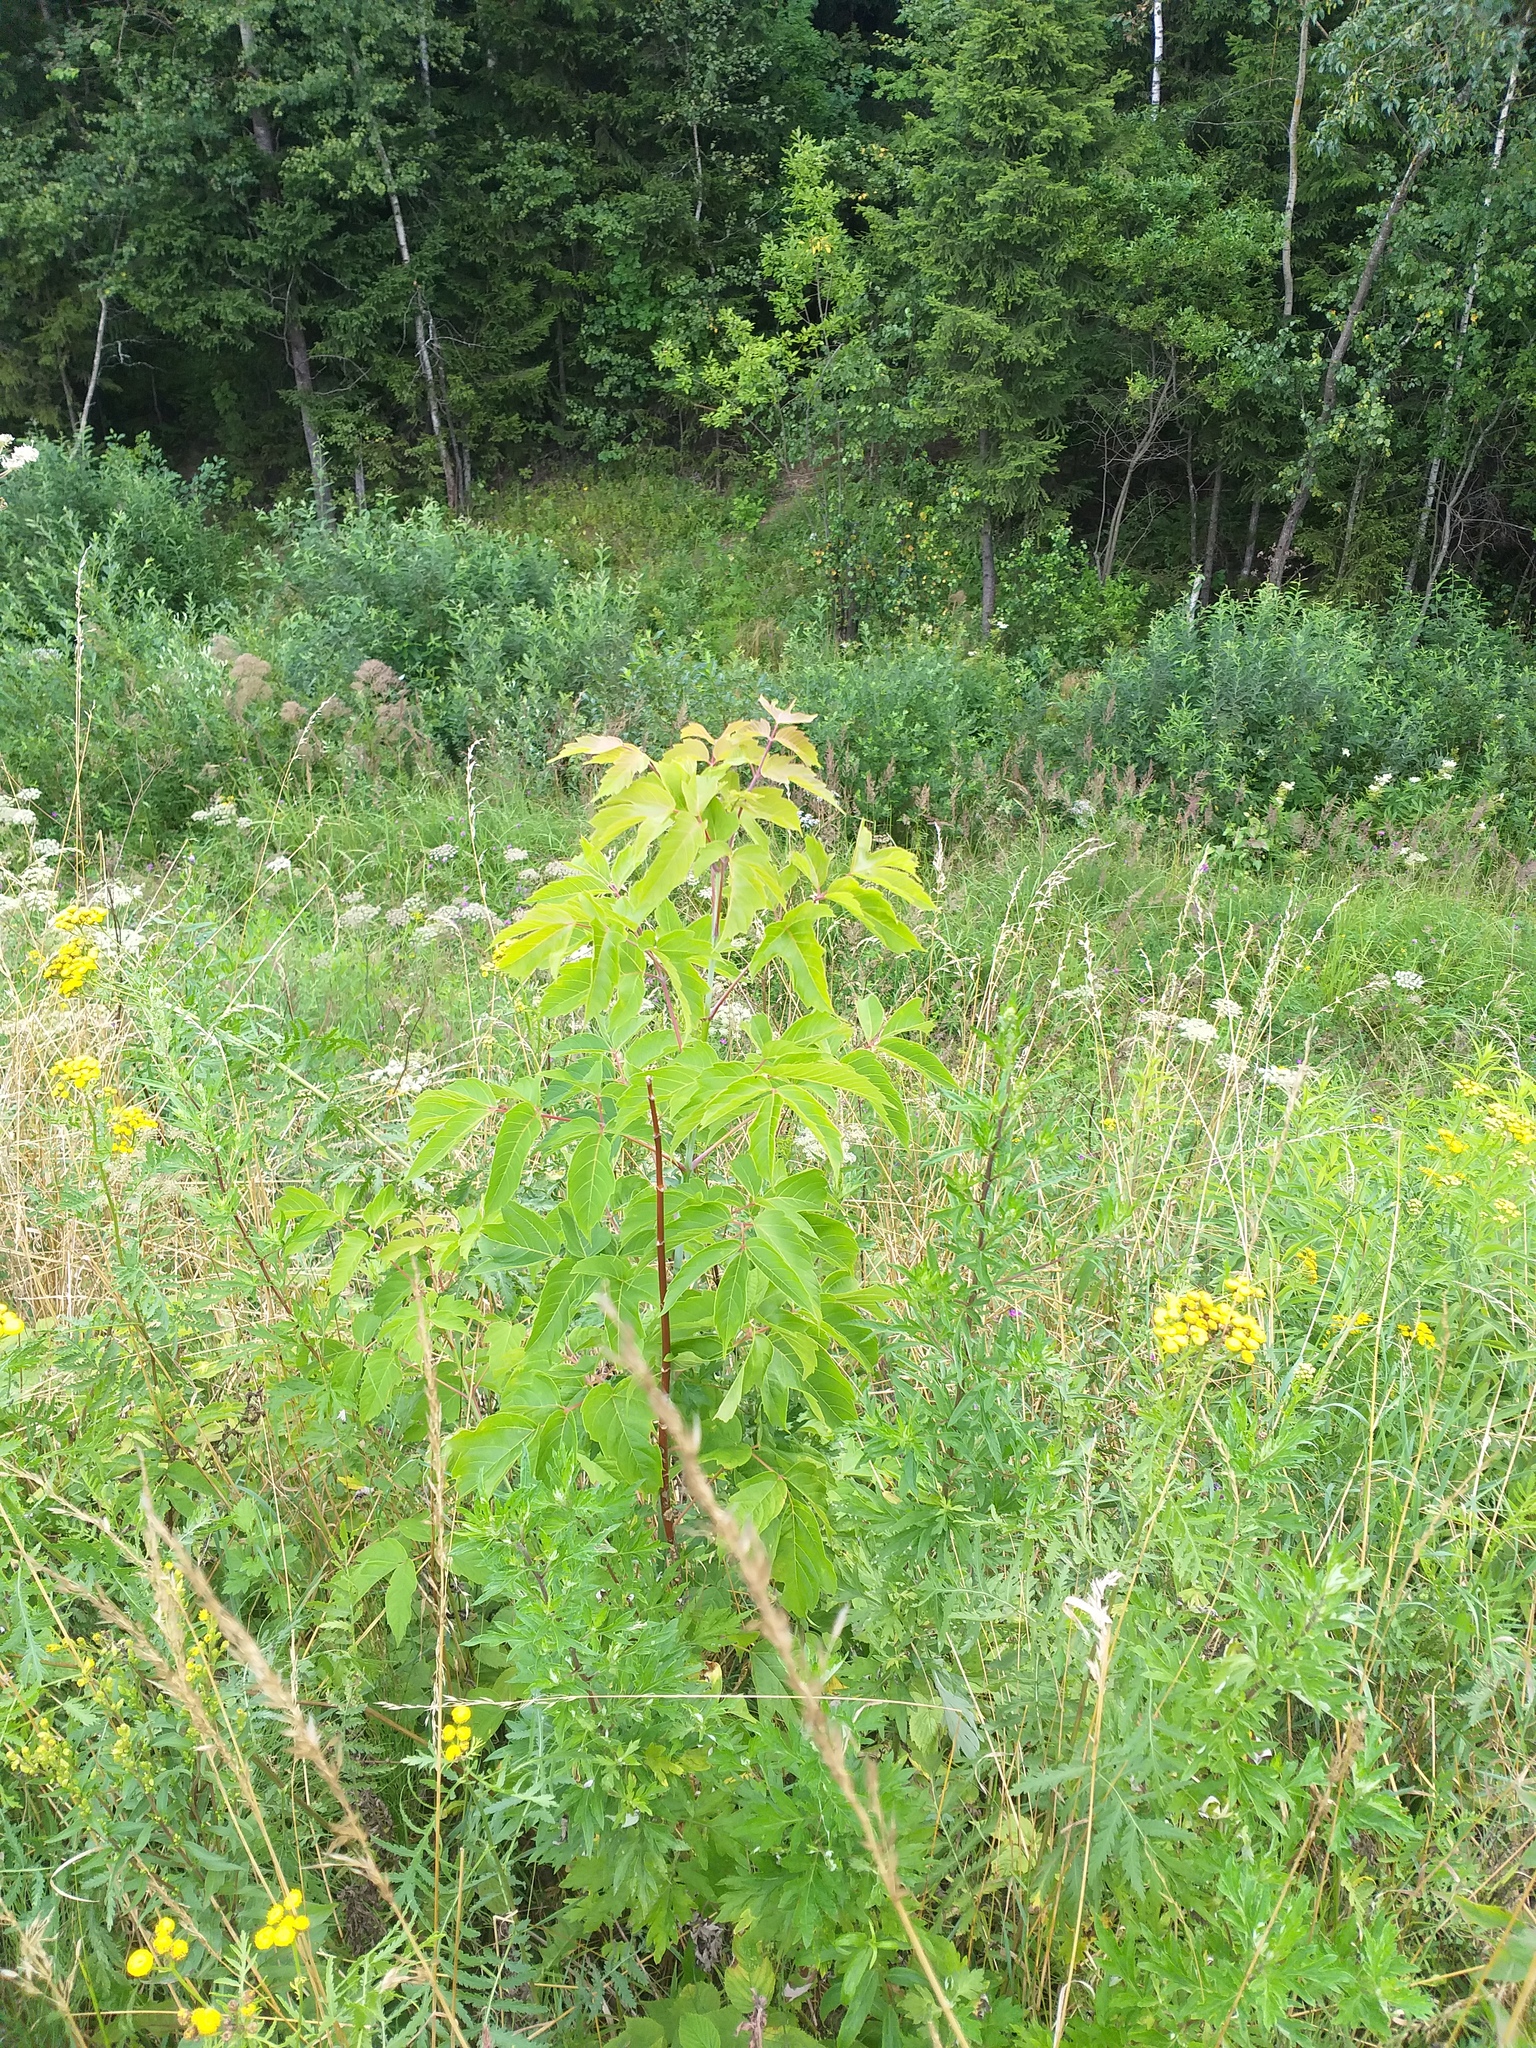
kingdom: Plantae
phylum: Tracheophyta
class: Magnoliopsida
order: Sapindales
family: Sapindaceae
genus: Acer
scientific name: Acer negundo
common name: Ashleaf maple
